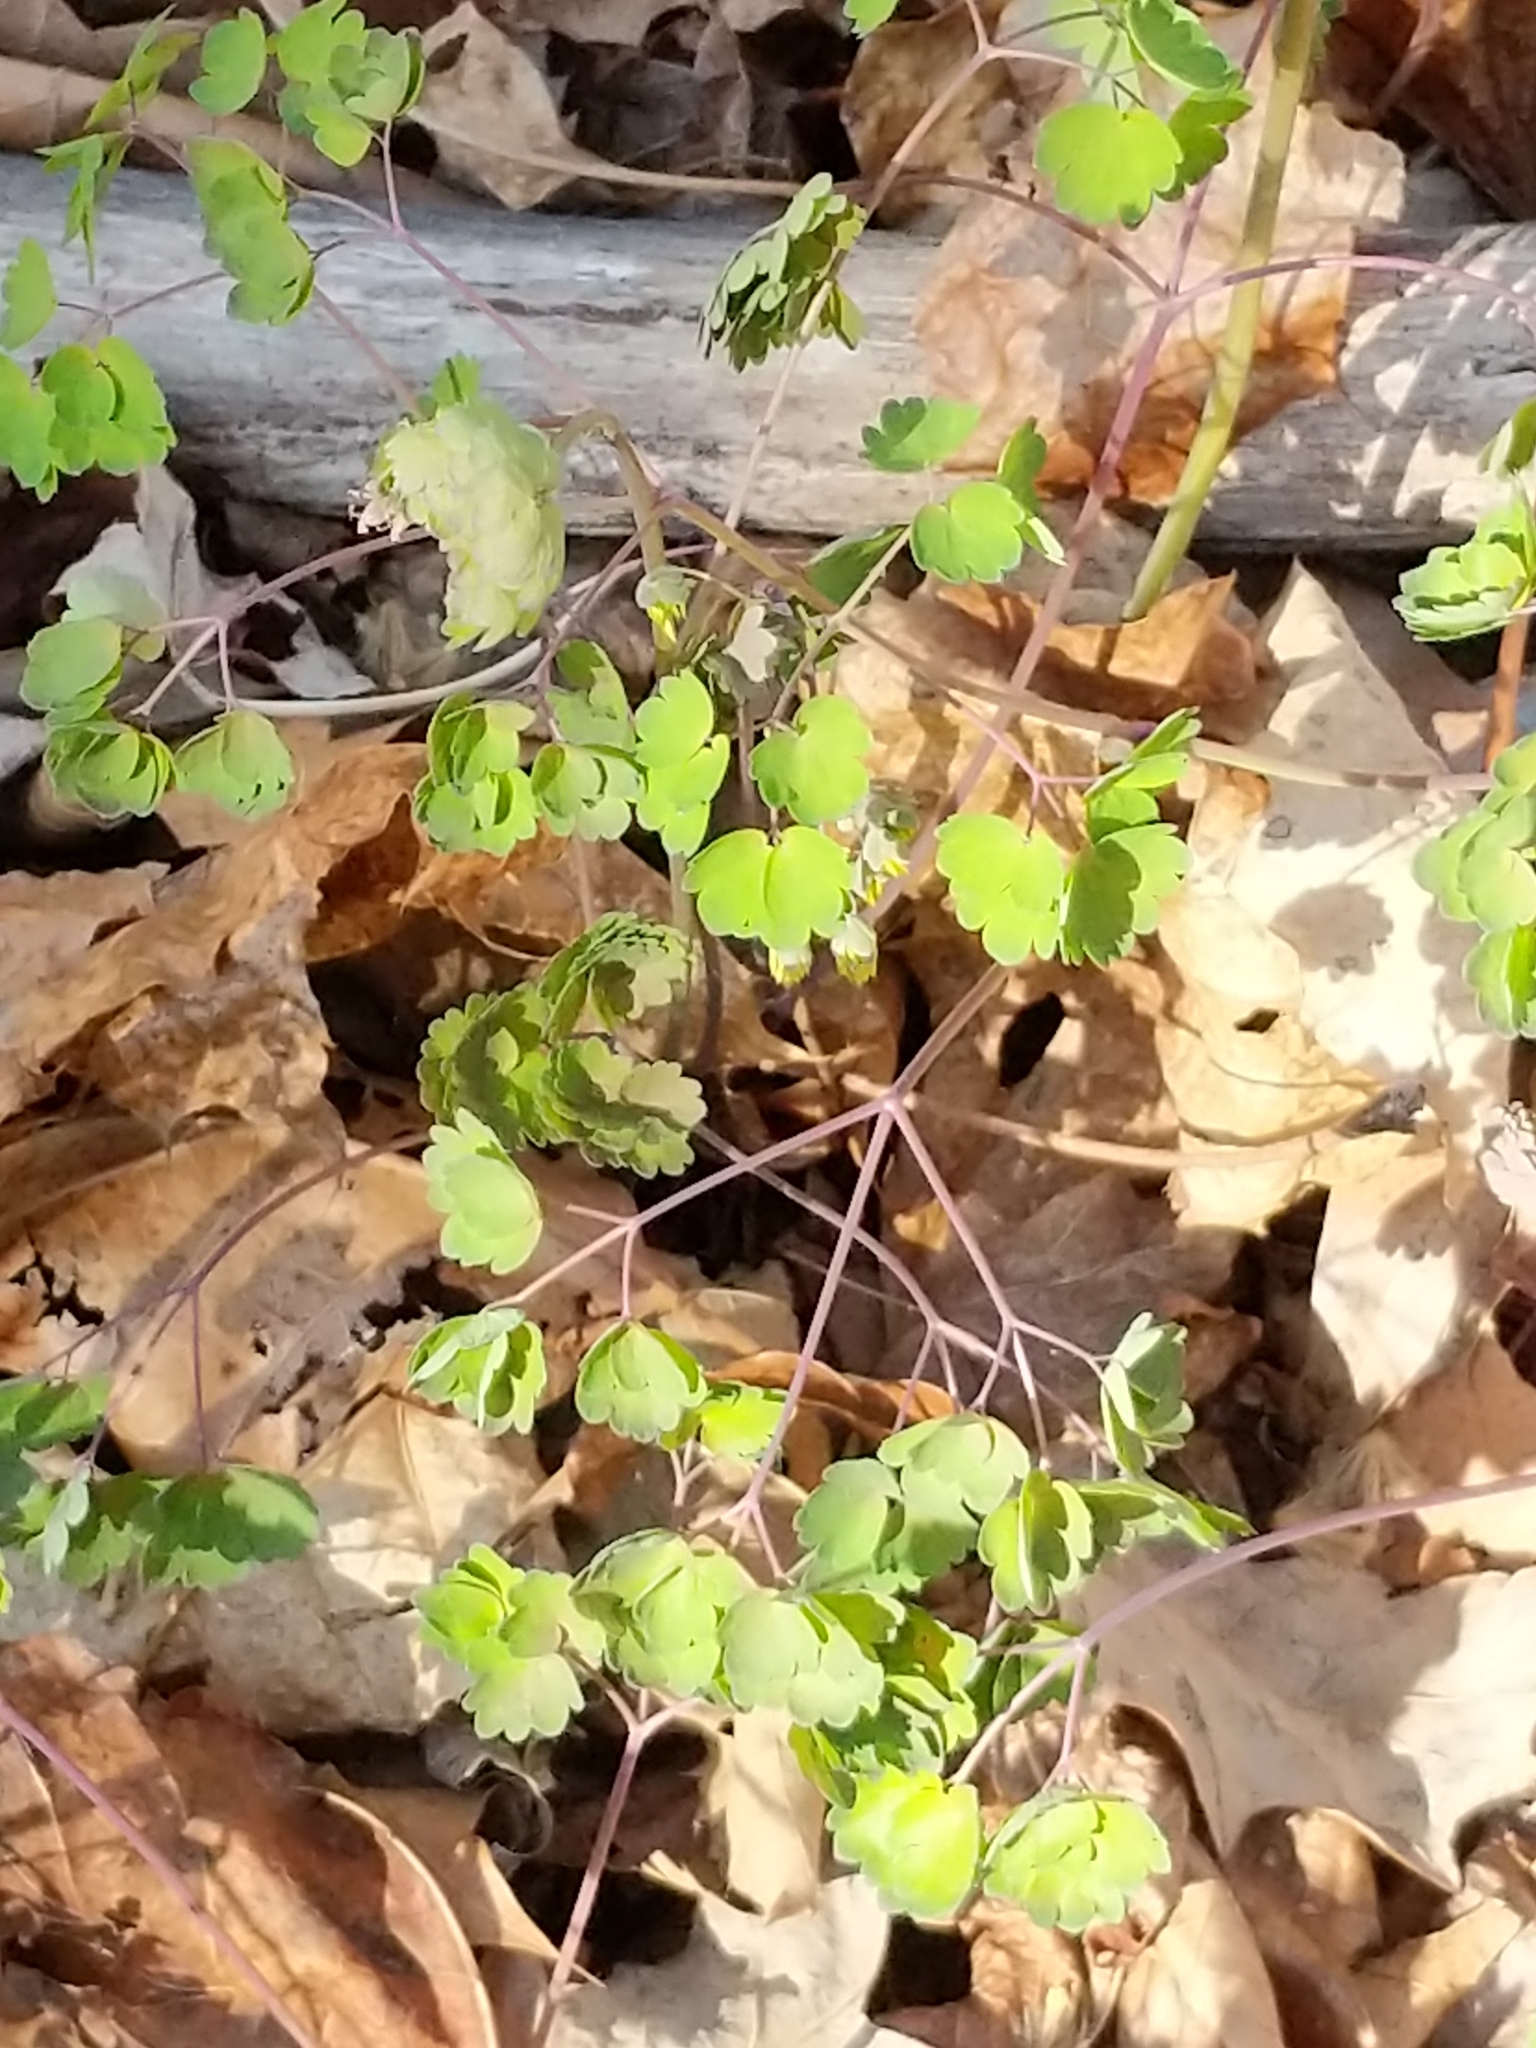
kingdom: Plantae
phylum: Tracheophyta
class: Magnoliopsida
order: Ranunculales
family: Ranunculaceae
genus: Thalictrum
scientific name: Thalictrum dioicum
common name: Early meadow-rue
